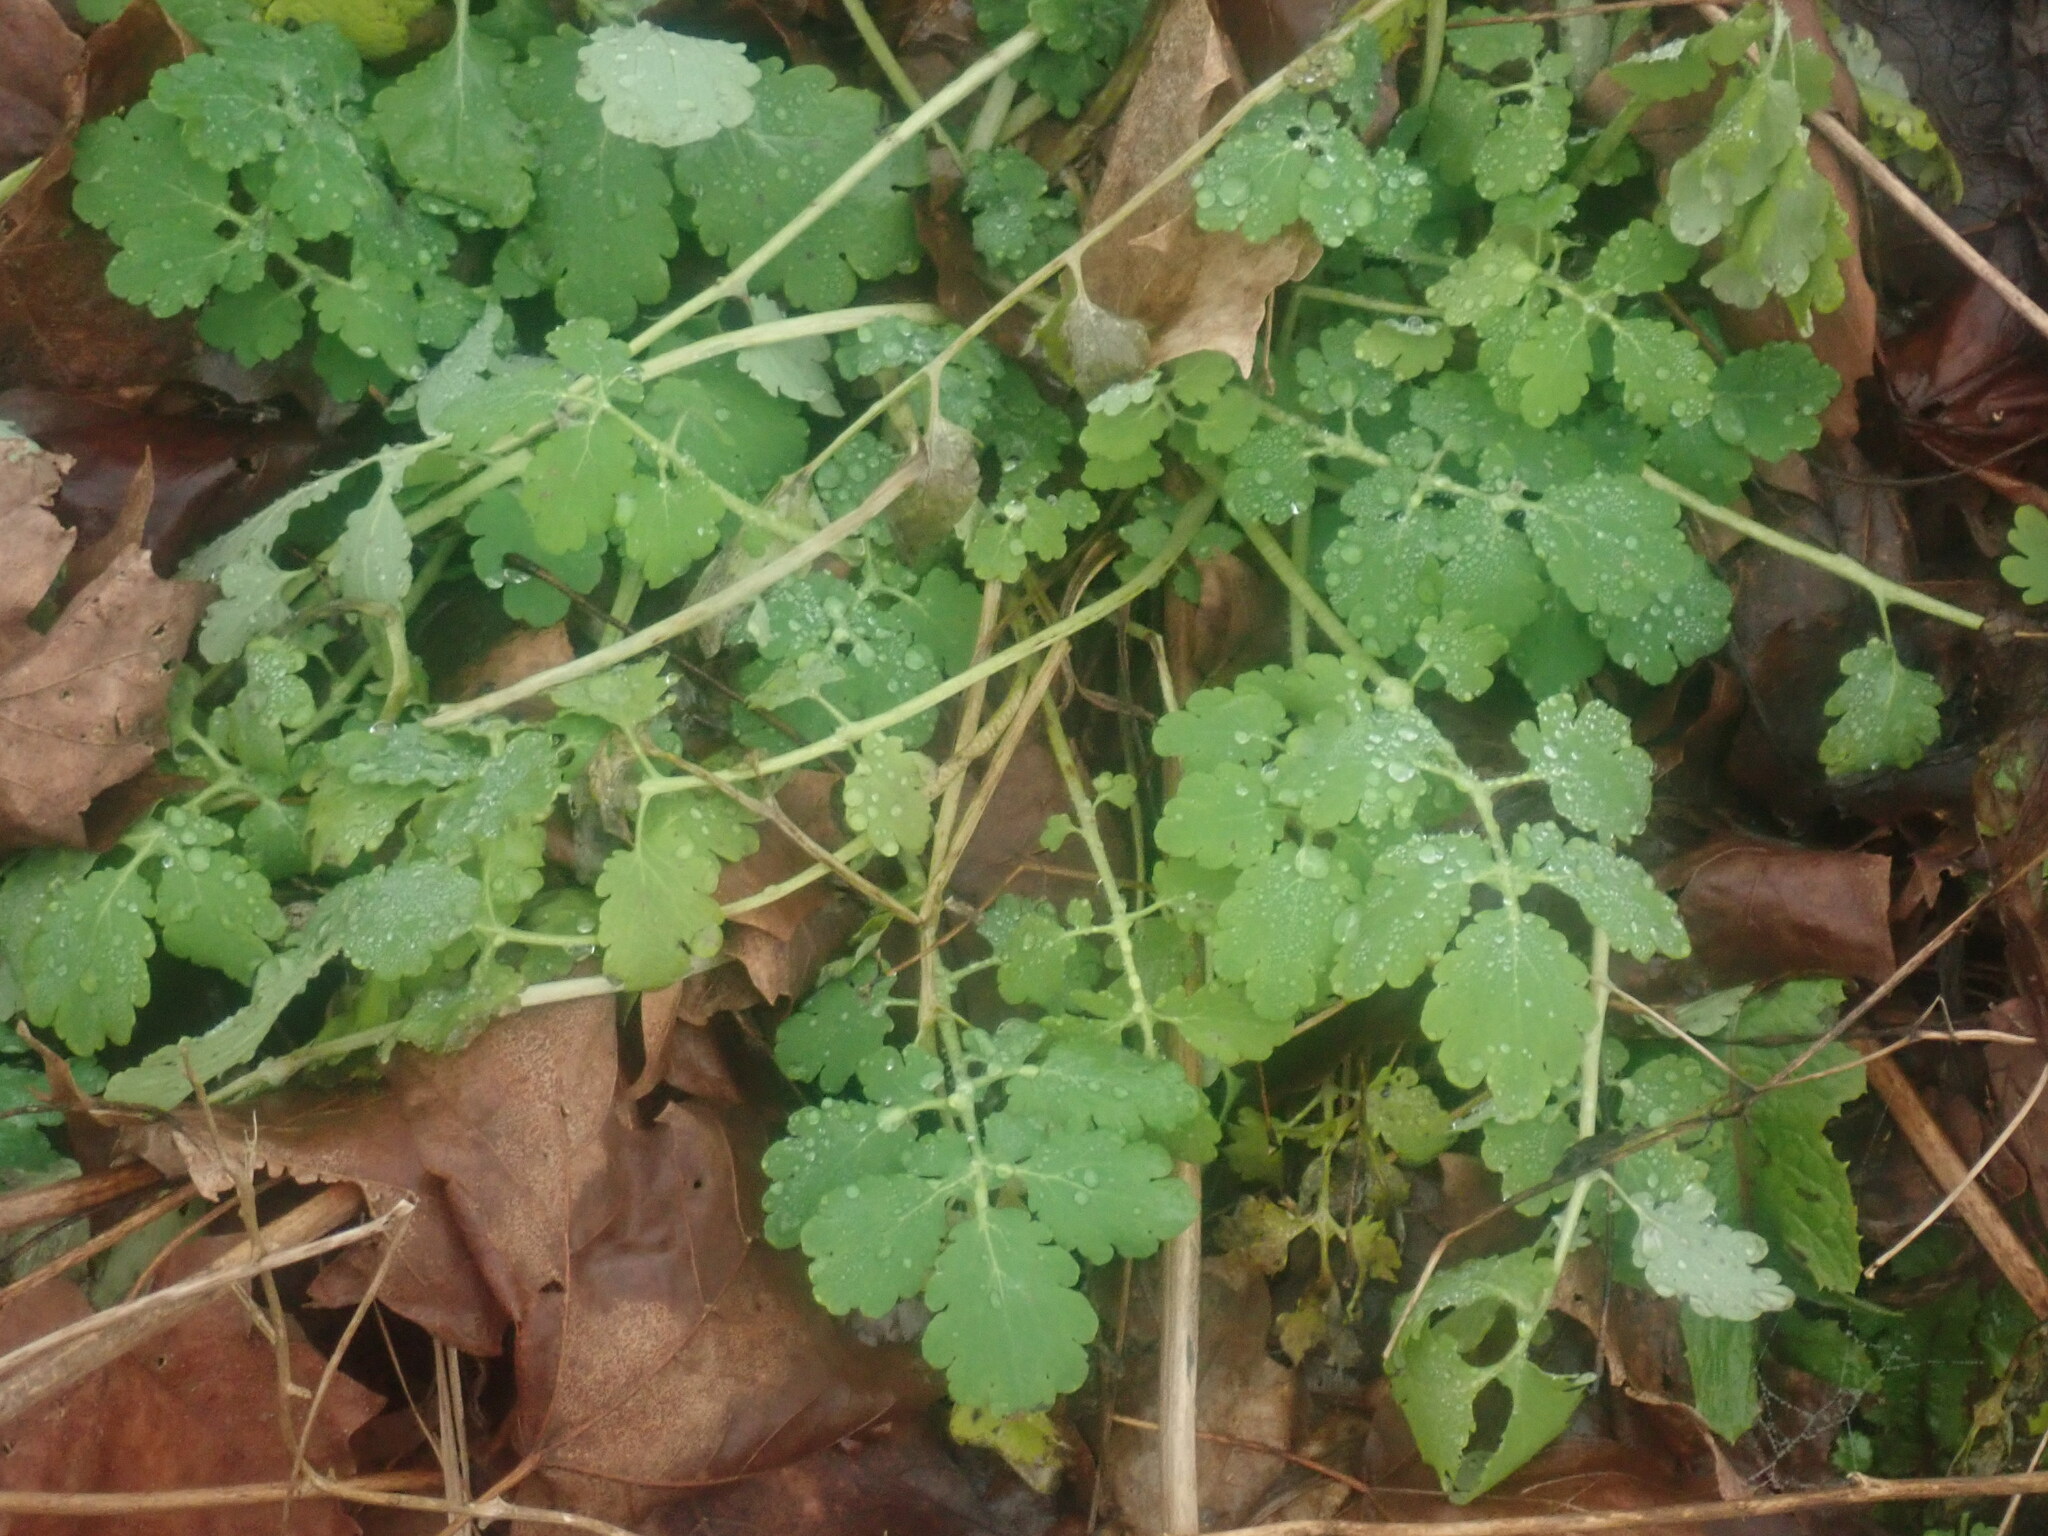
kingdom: Plantae
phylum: Tracheophyta
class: Magnoliopsida
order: Ranunculales
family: Papaveraceae
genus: Chelidonium
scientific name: Chelidonium majus
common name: Greater celandine
